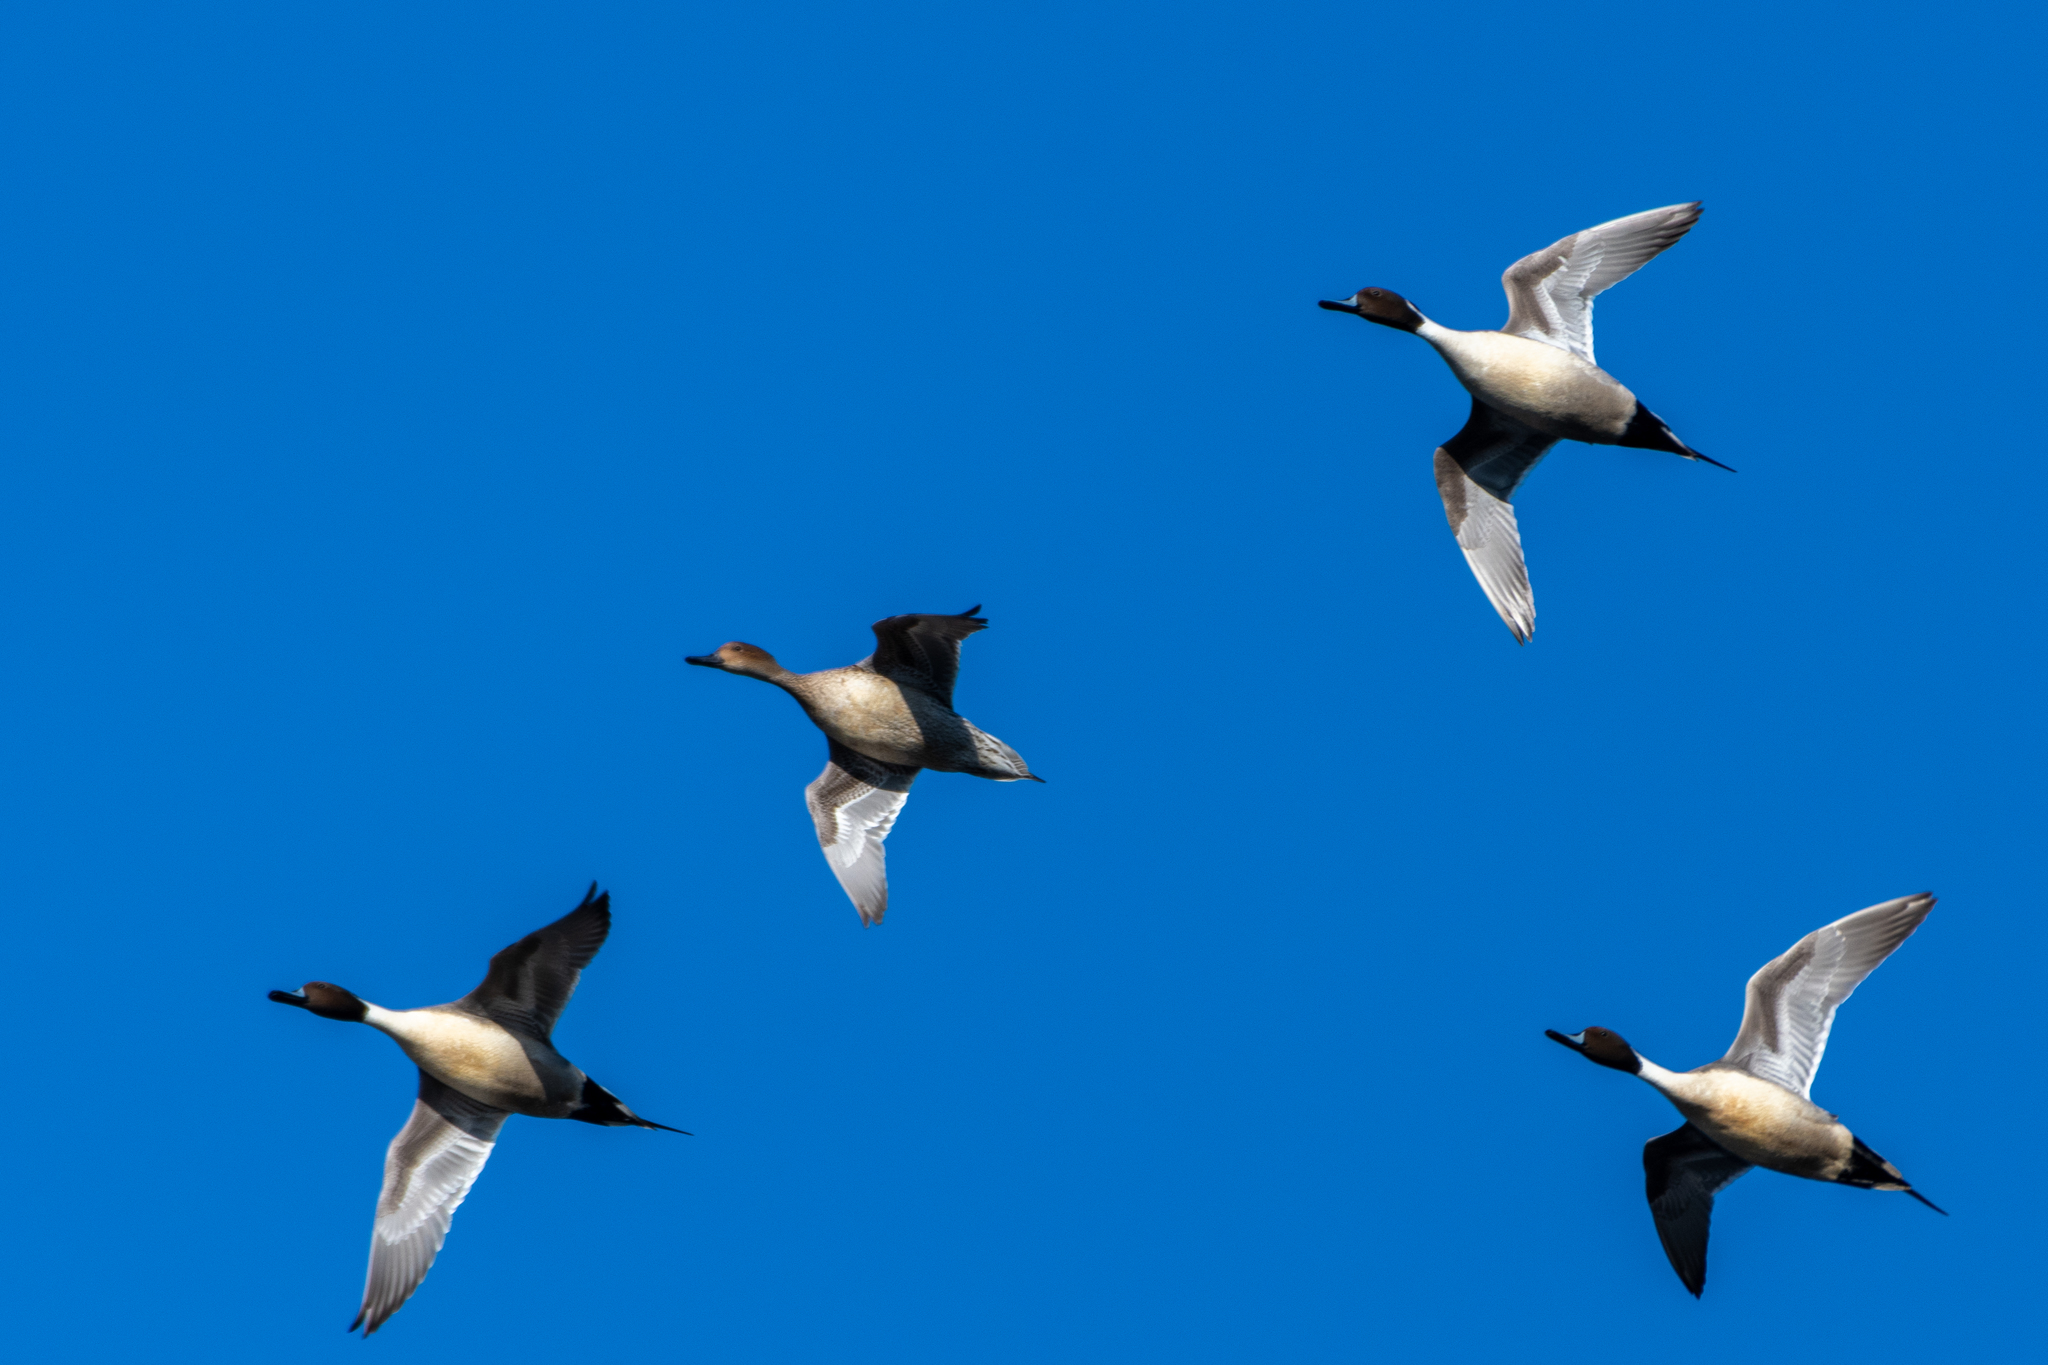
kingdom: Animalia
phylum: Chordata
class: Aves
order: Anseriformes
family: Anatidae
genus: Anas
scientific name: Anas acuta
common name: Northern pintail
